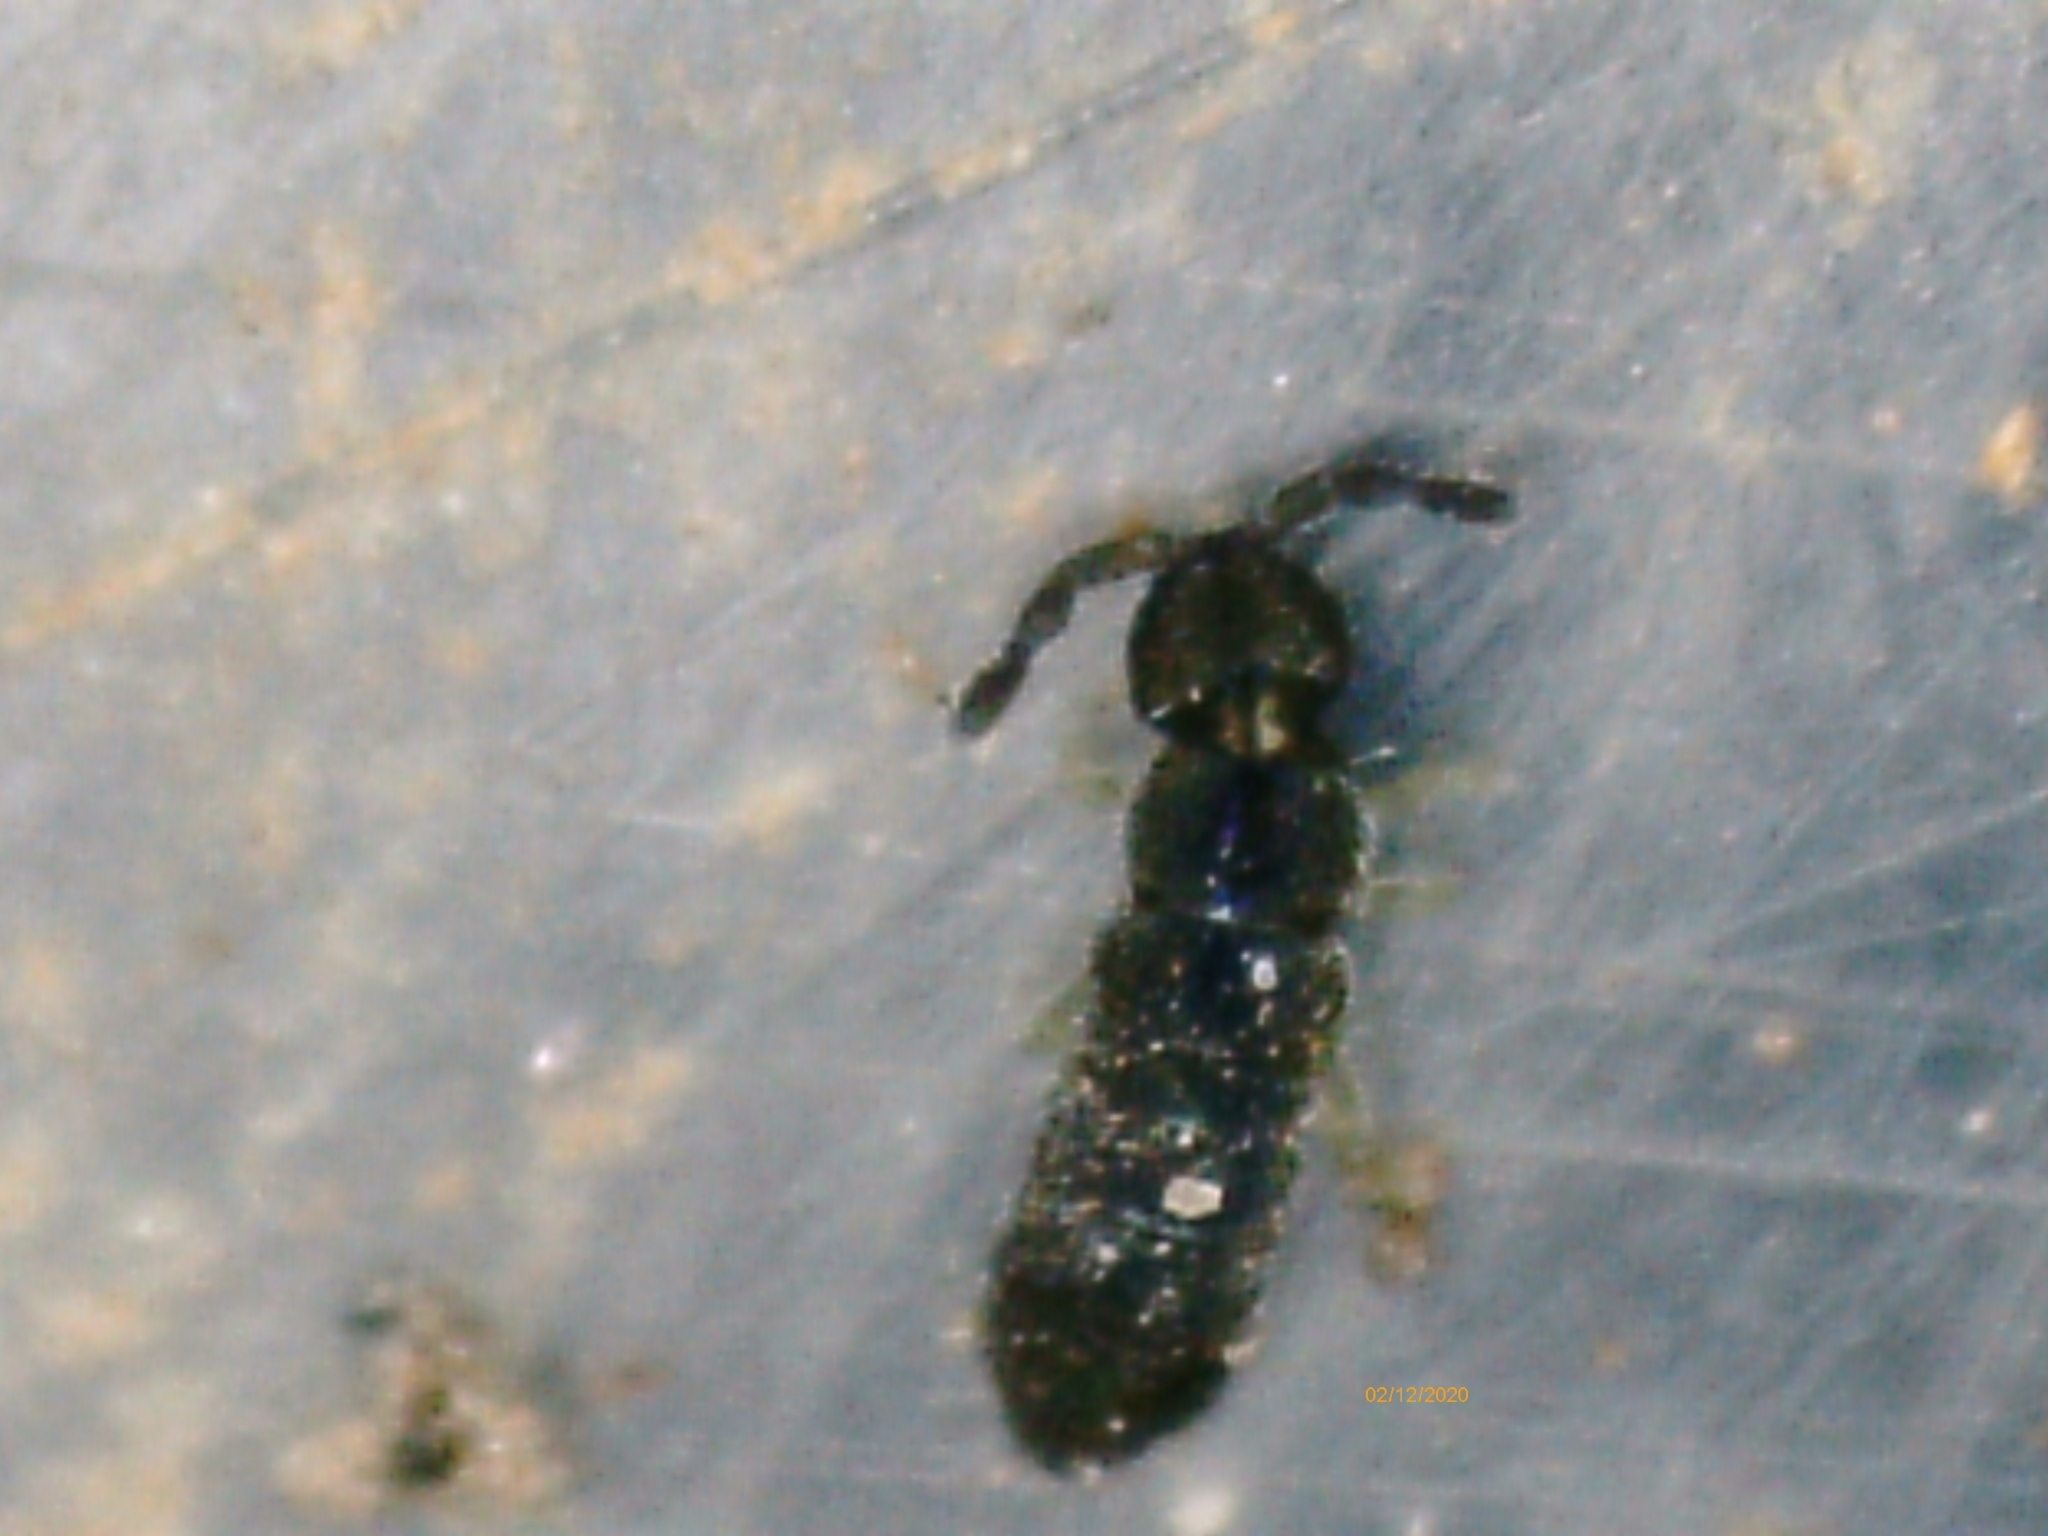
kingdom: Animalia
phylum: Arthropoda
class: Collembola
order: Entomobryomorpha
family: Isotomidae
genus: Vertagopus
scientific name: Vertagopus asiaticus
